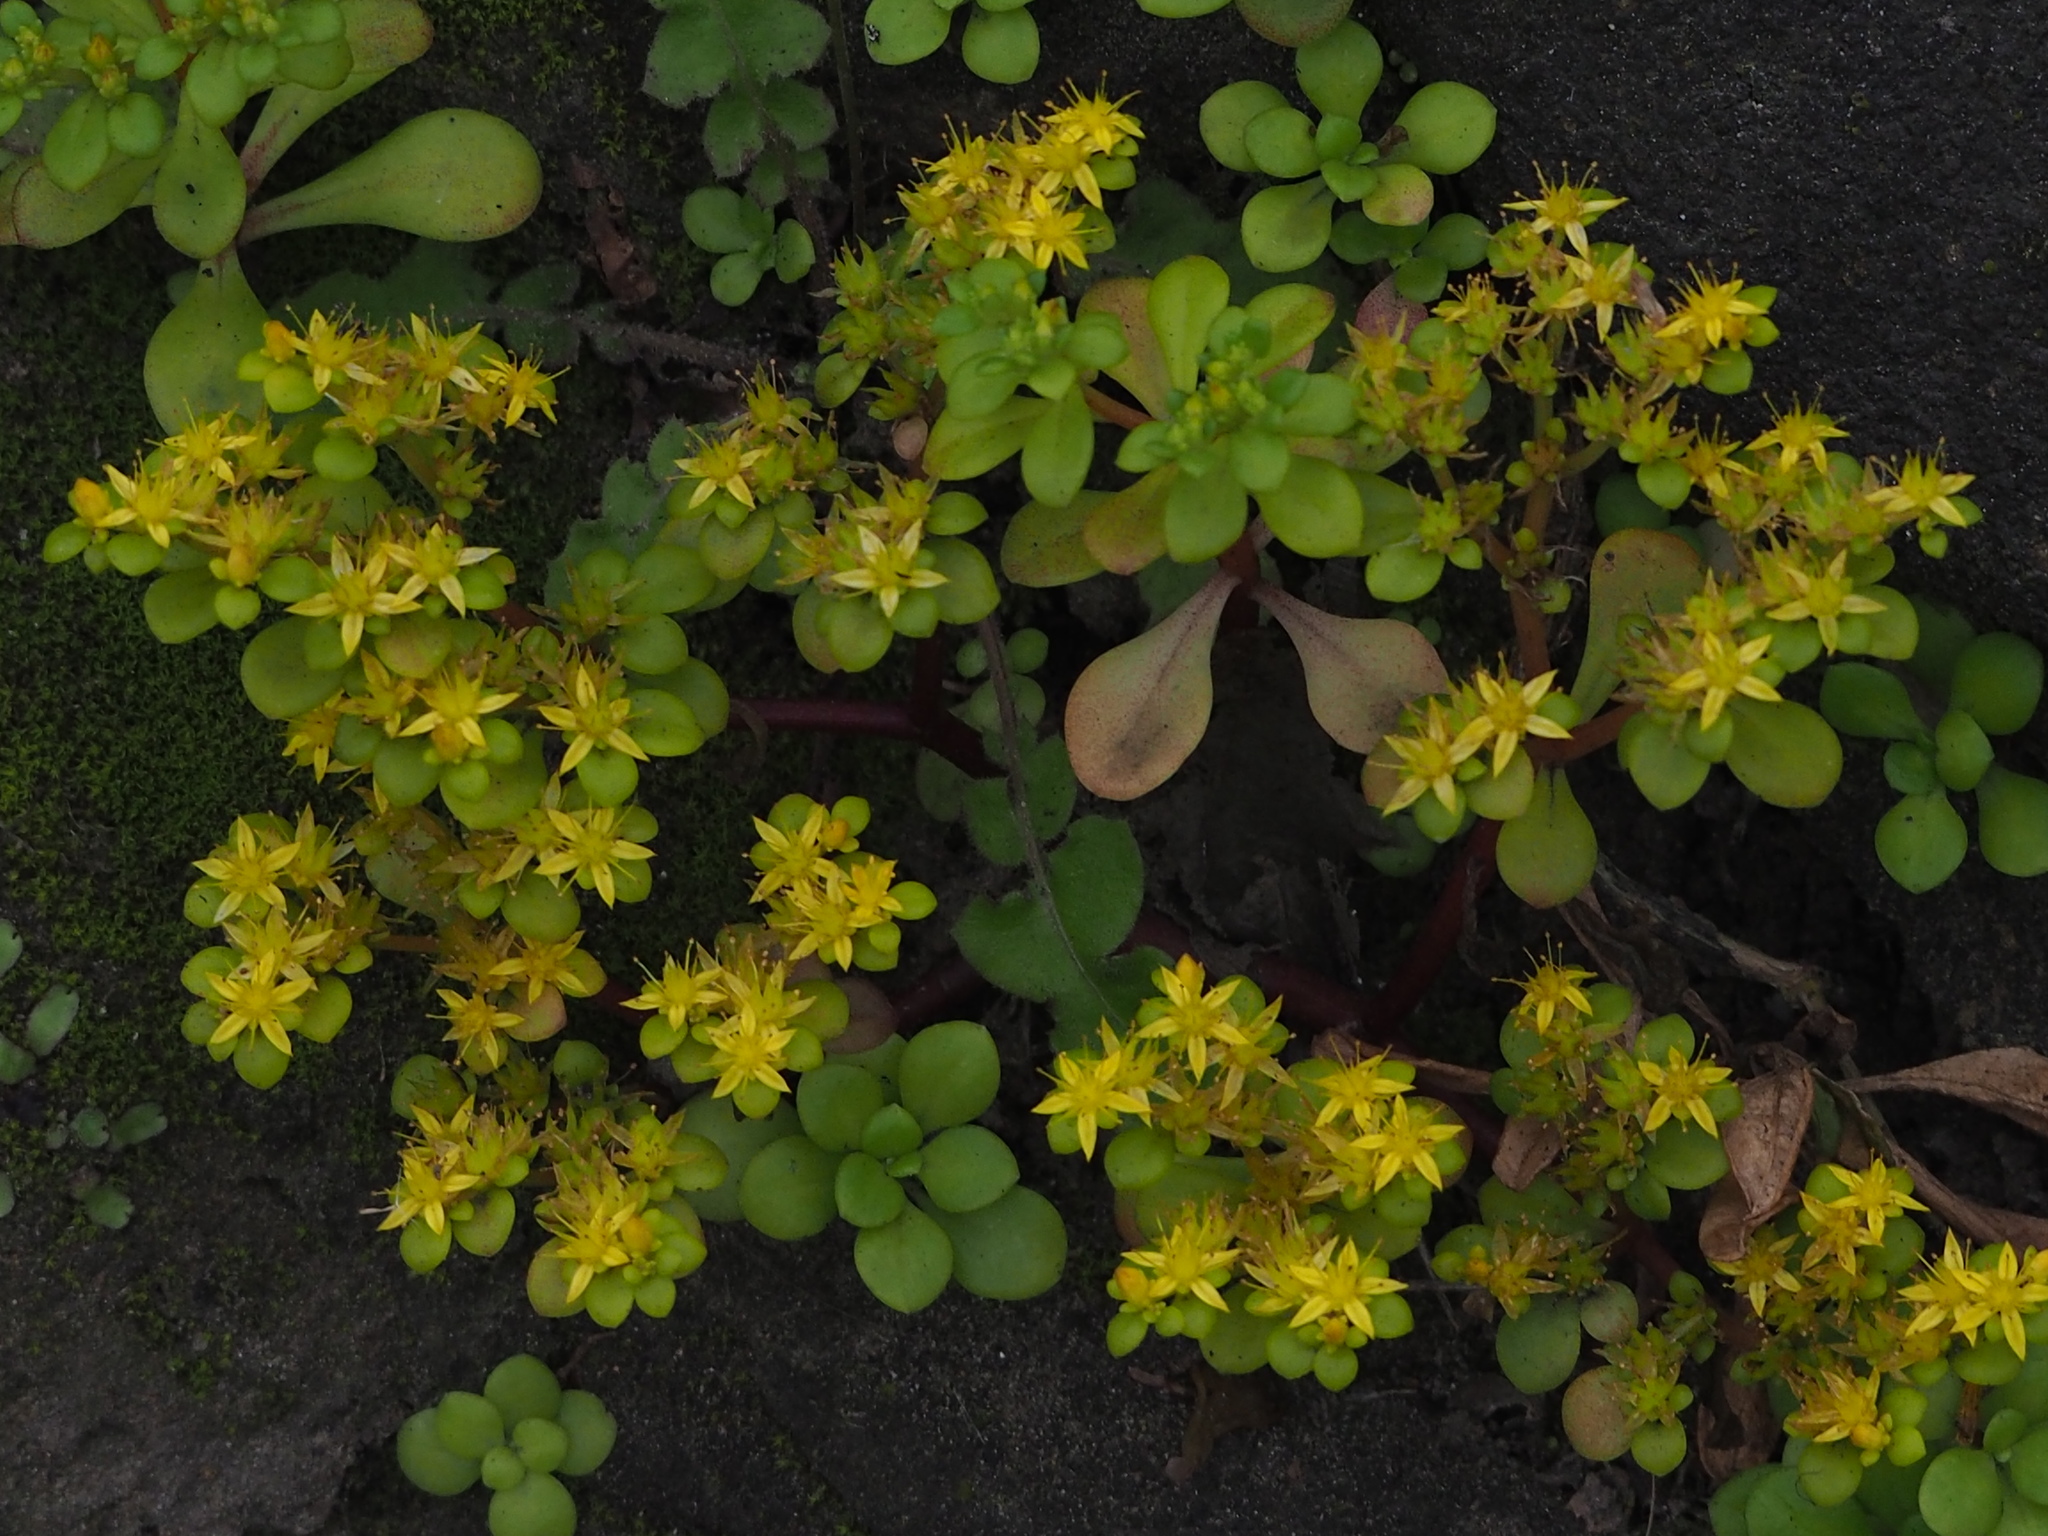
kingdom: Plantae
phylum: Tracheophyta
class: Magnoliopsida
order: Saxifragales
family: Crassulaceae
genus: Sedum
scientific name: Sedum formosanum
